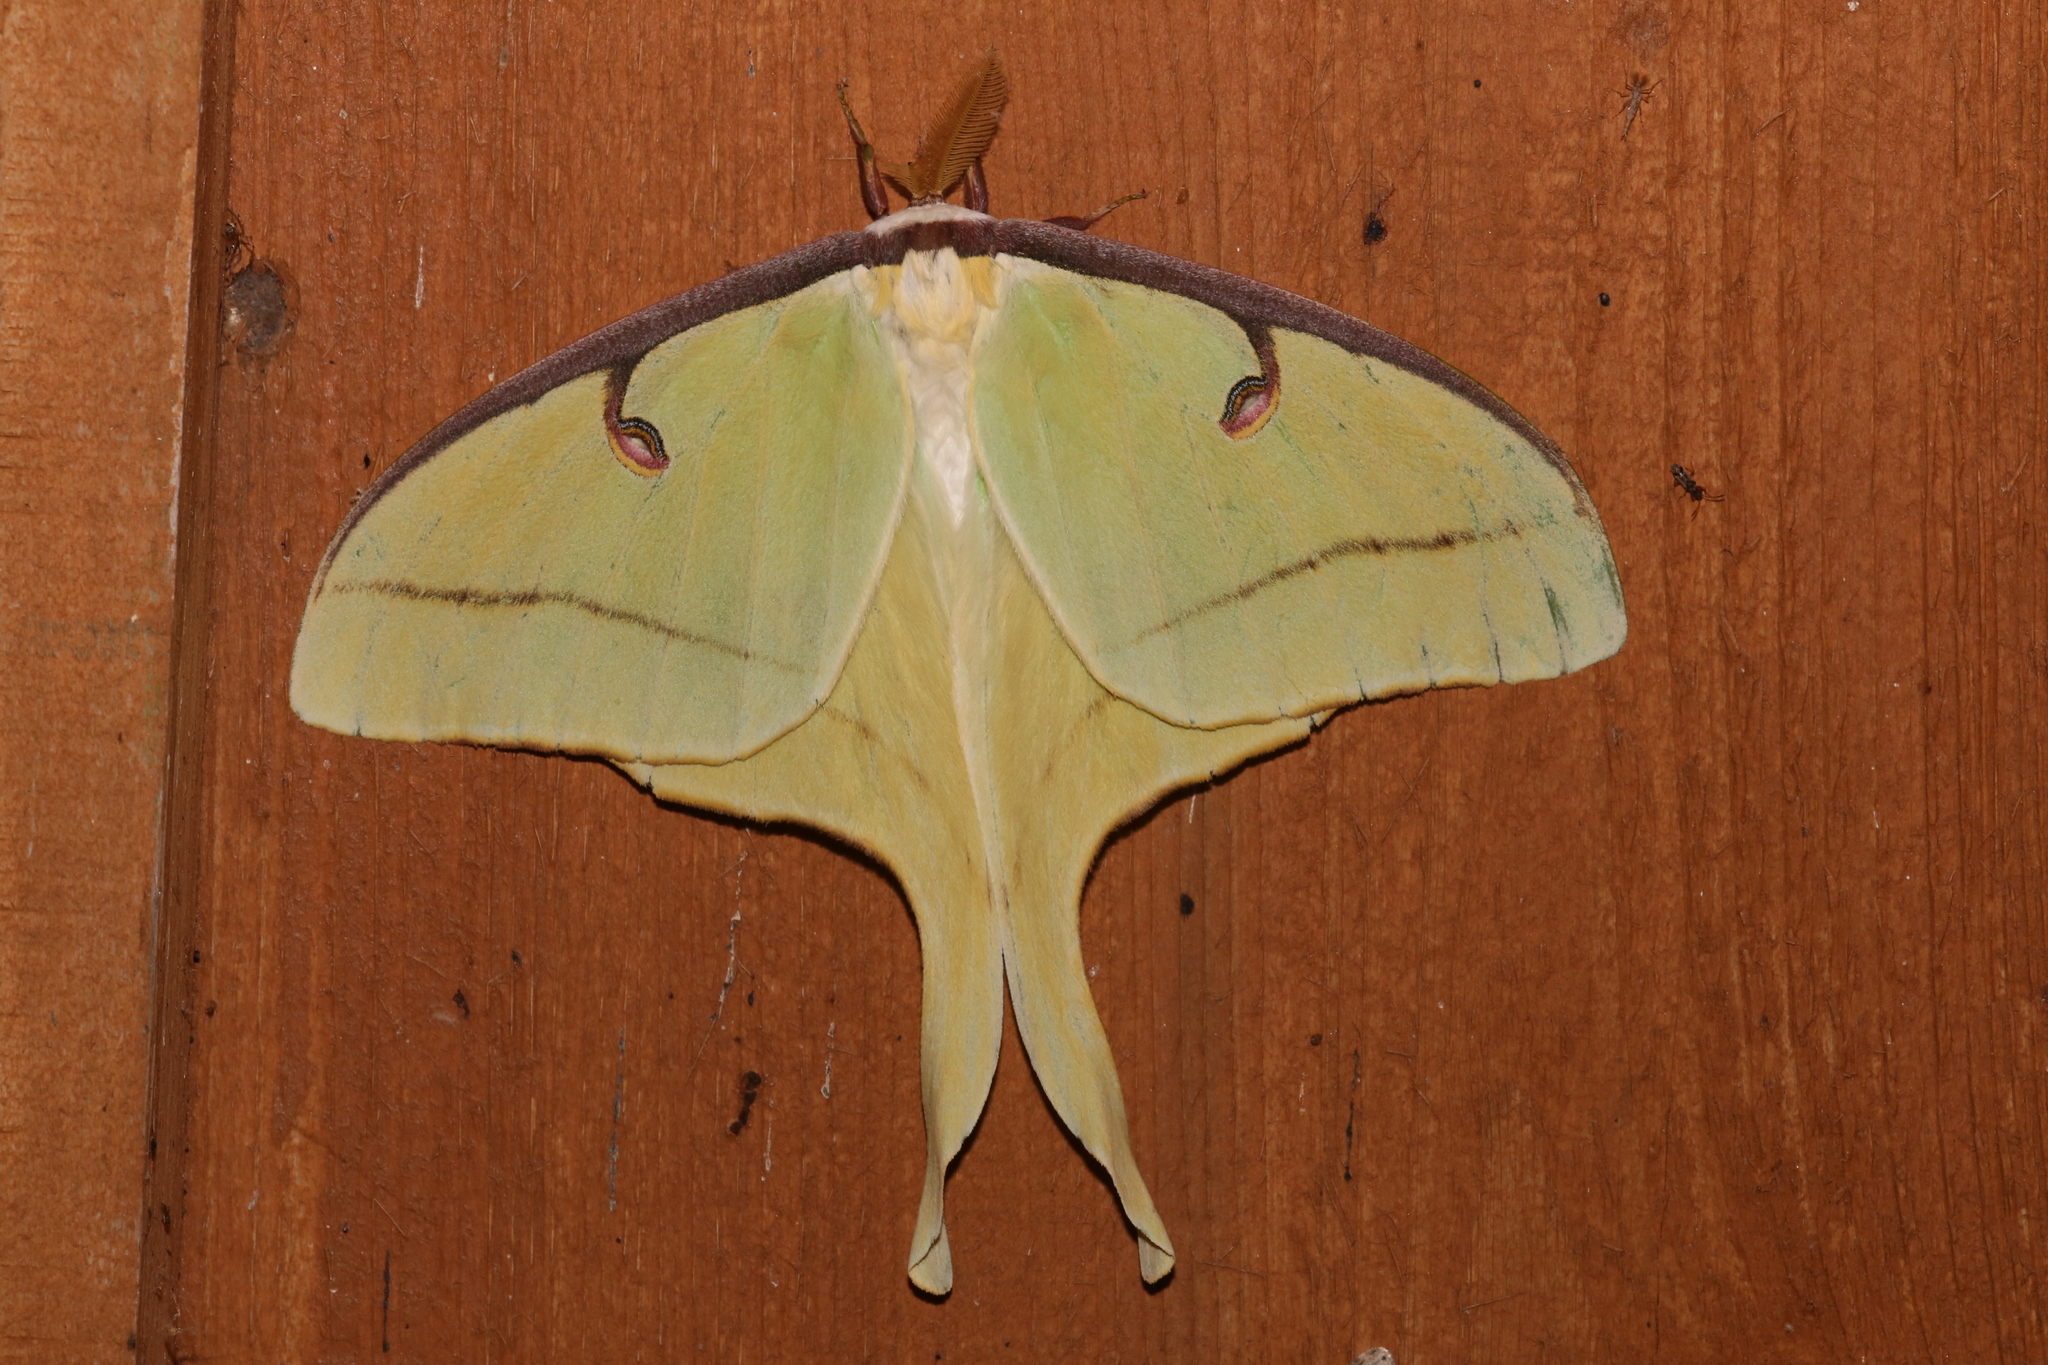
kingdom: Animalia
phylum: Arthropoda
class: Insecta
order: Lepidoptera
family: Saturniidae
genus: Actias
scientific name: Actias luna
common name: Luna moth
